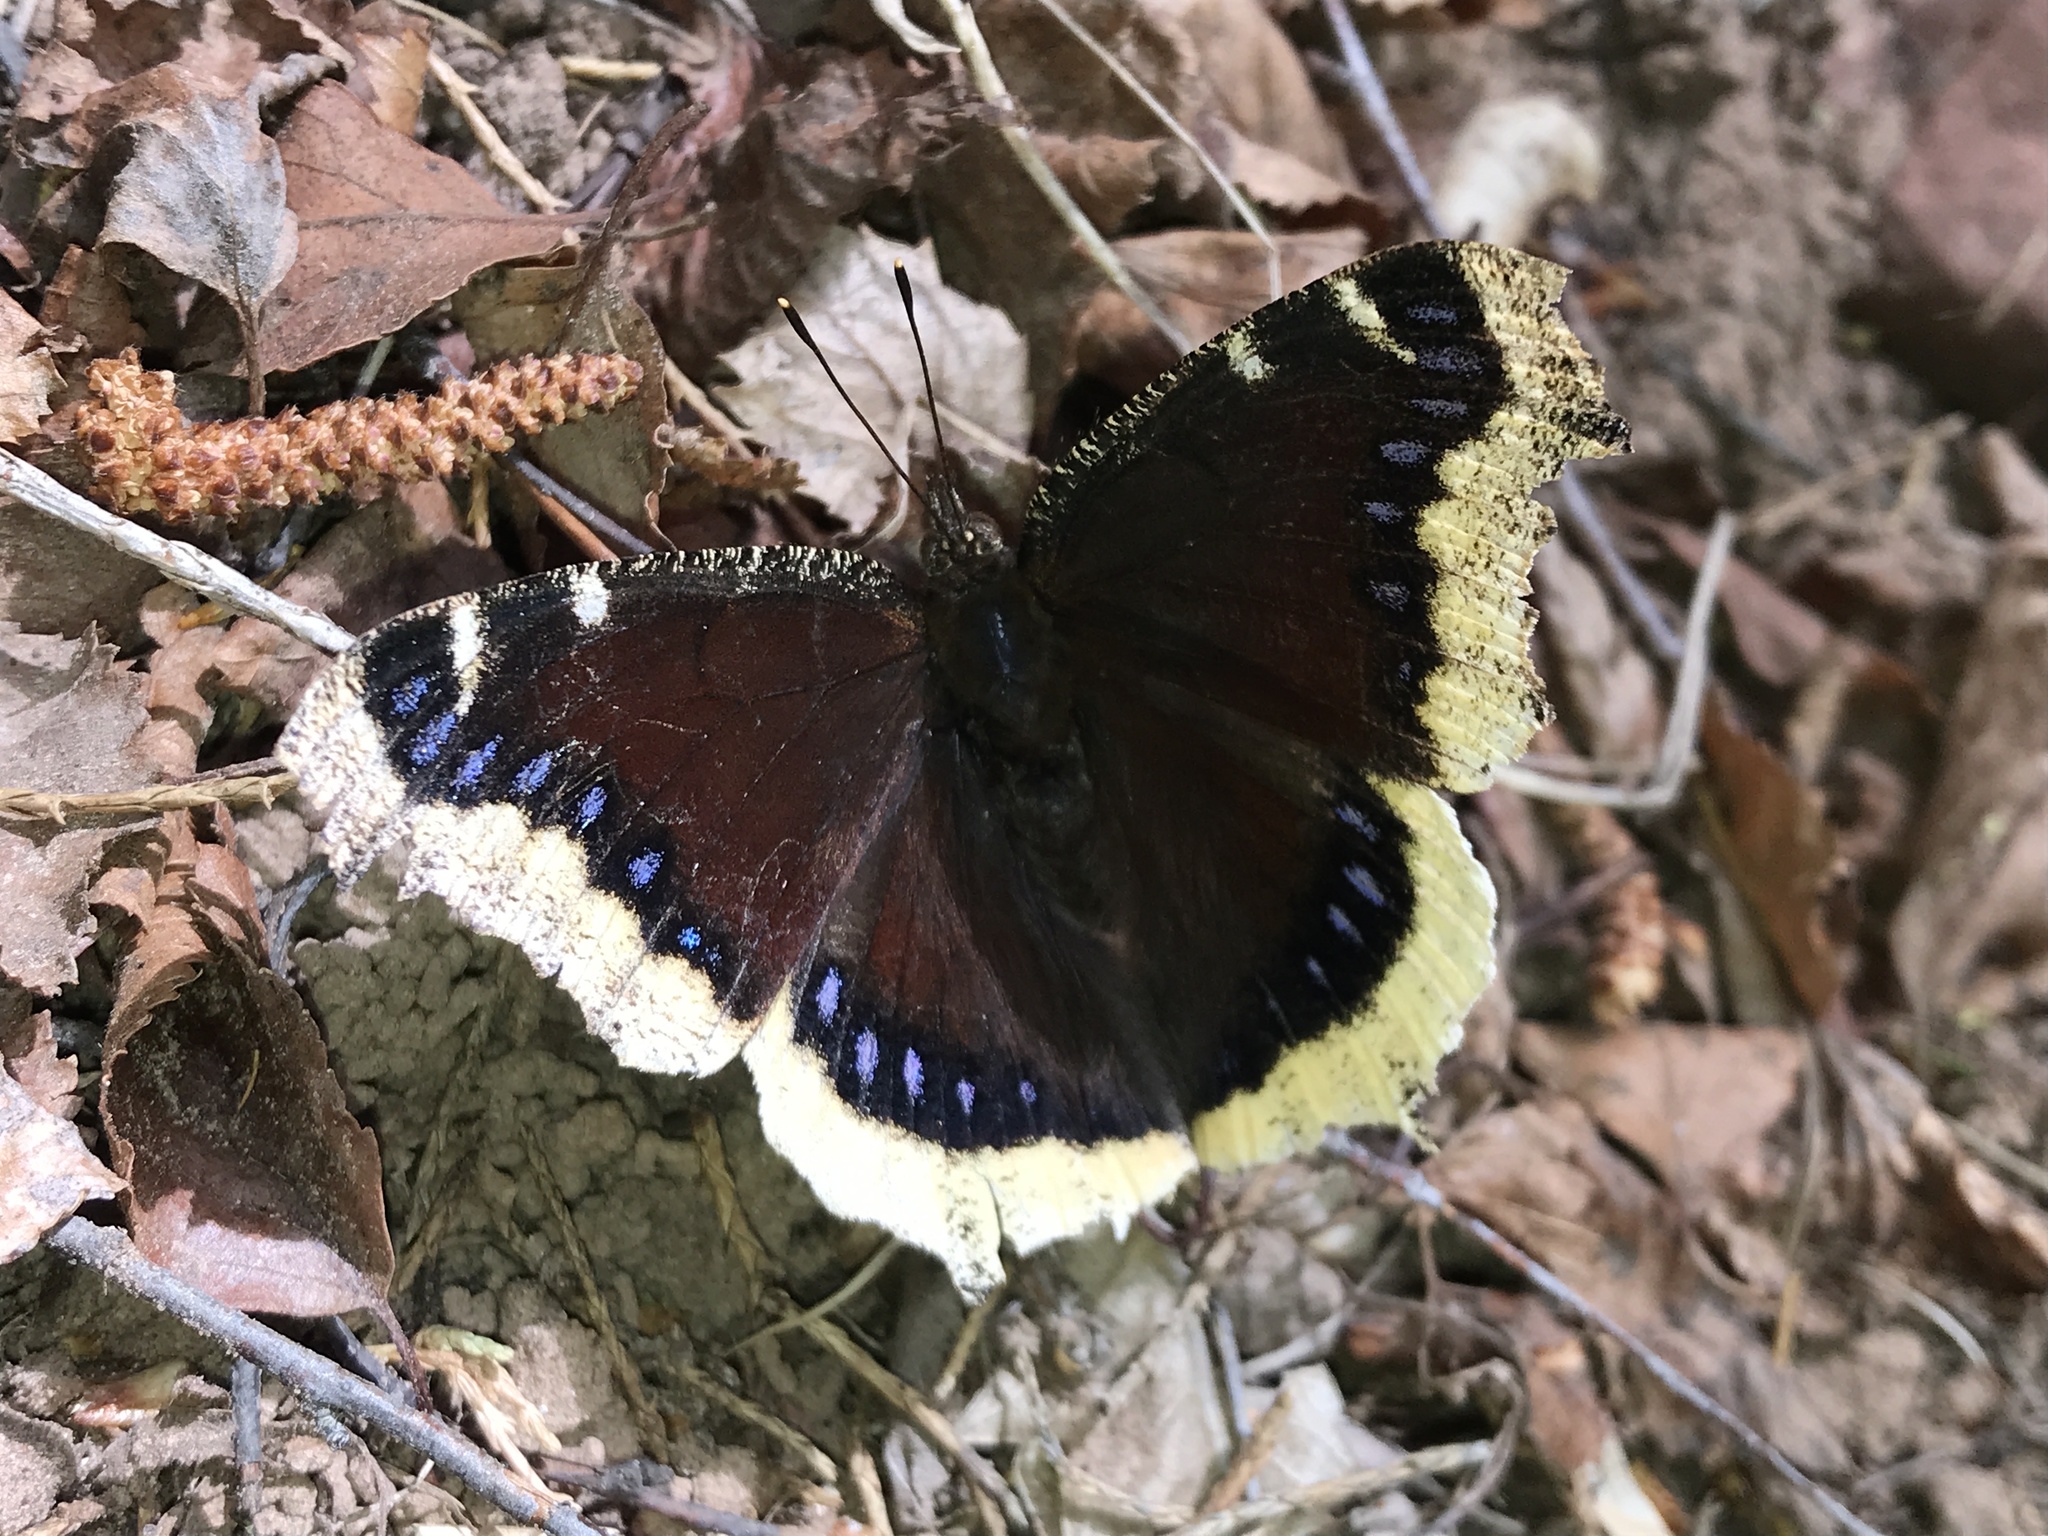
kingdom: Animalia
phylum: Arthropoda
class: Insecta
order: Lepidoptera
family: Nymphalidae
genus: Nymphalis
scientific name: Nymphalis antiopa
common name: Camberwell beauty
